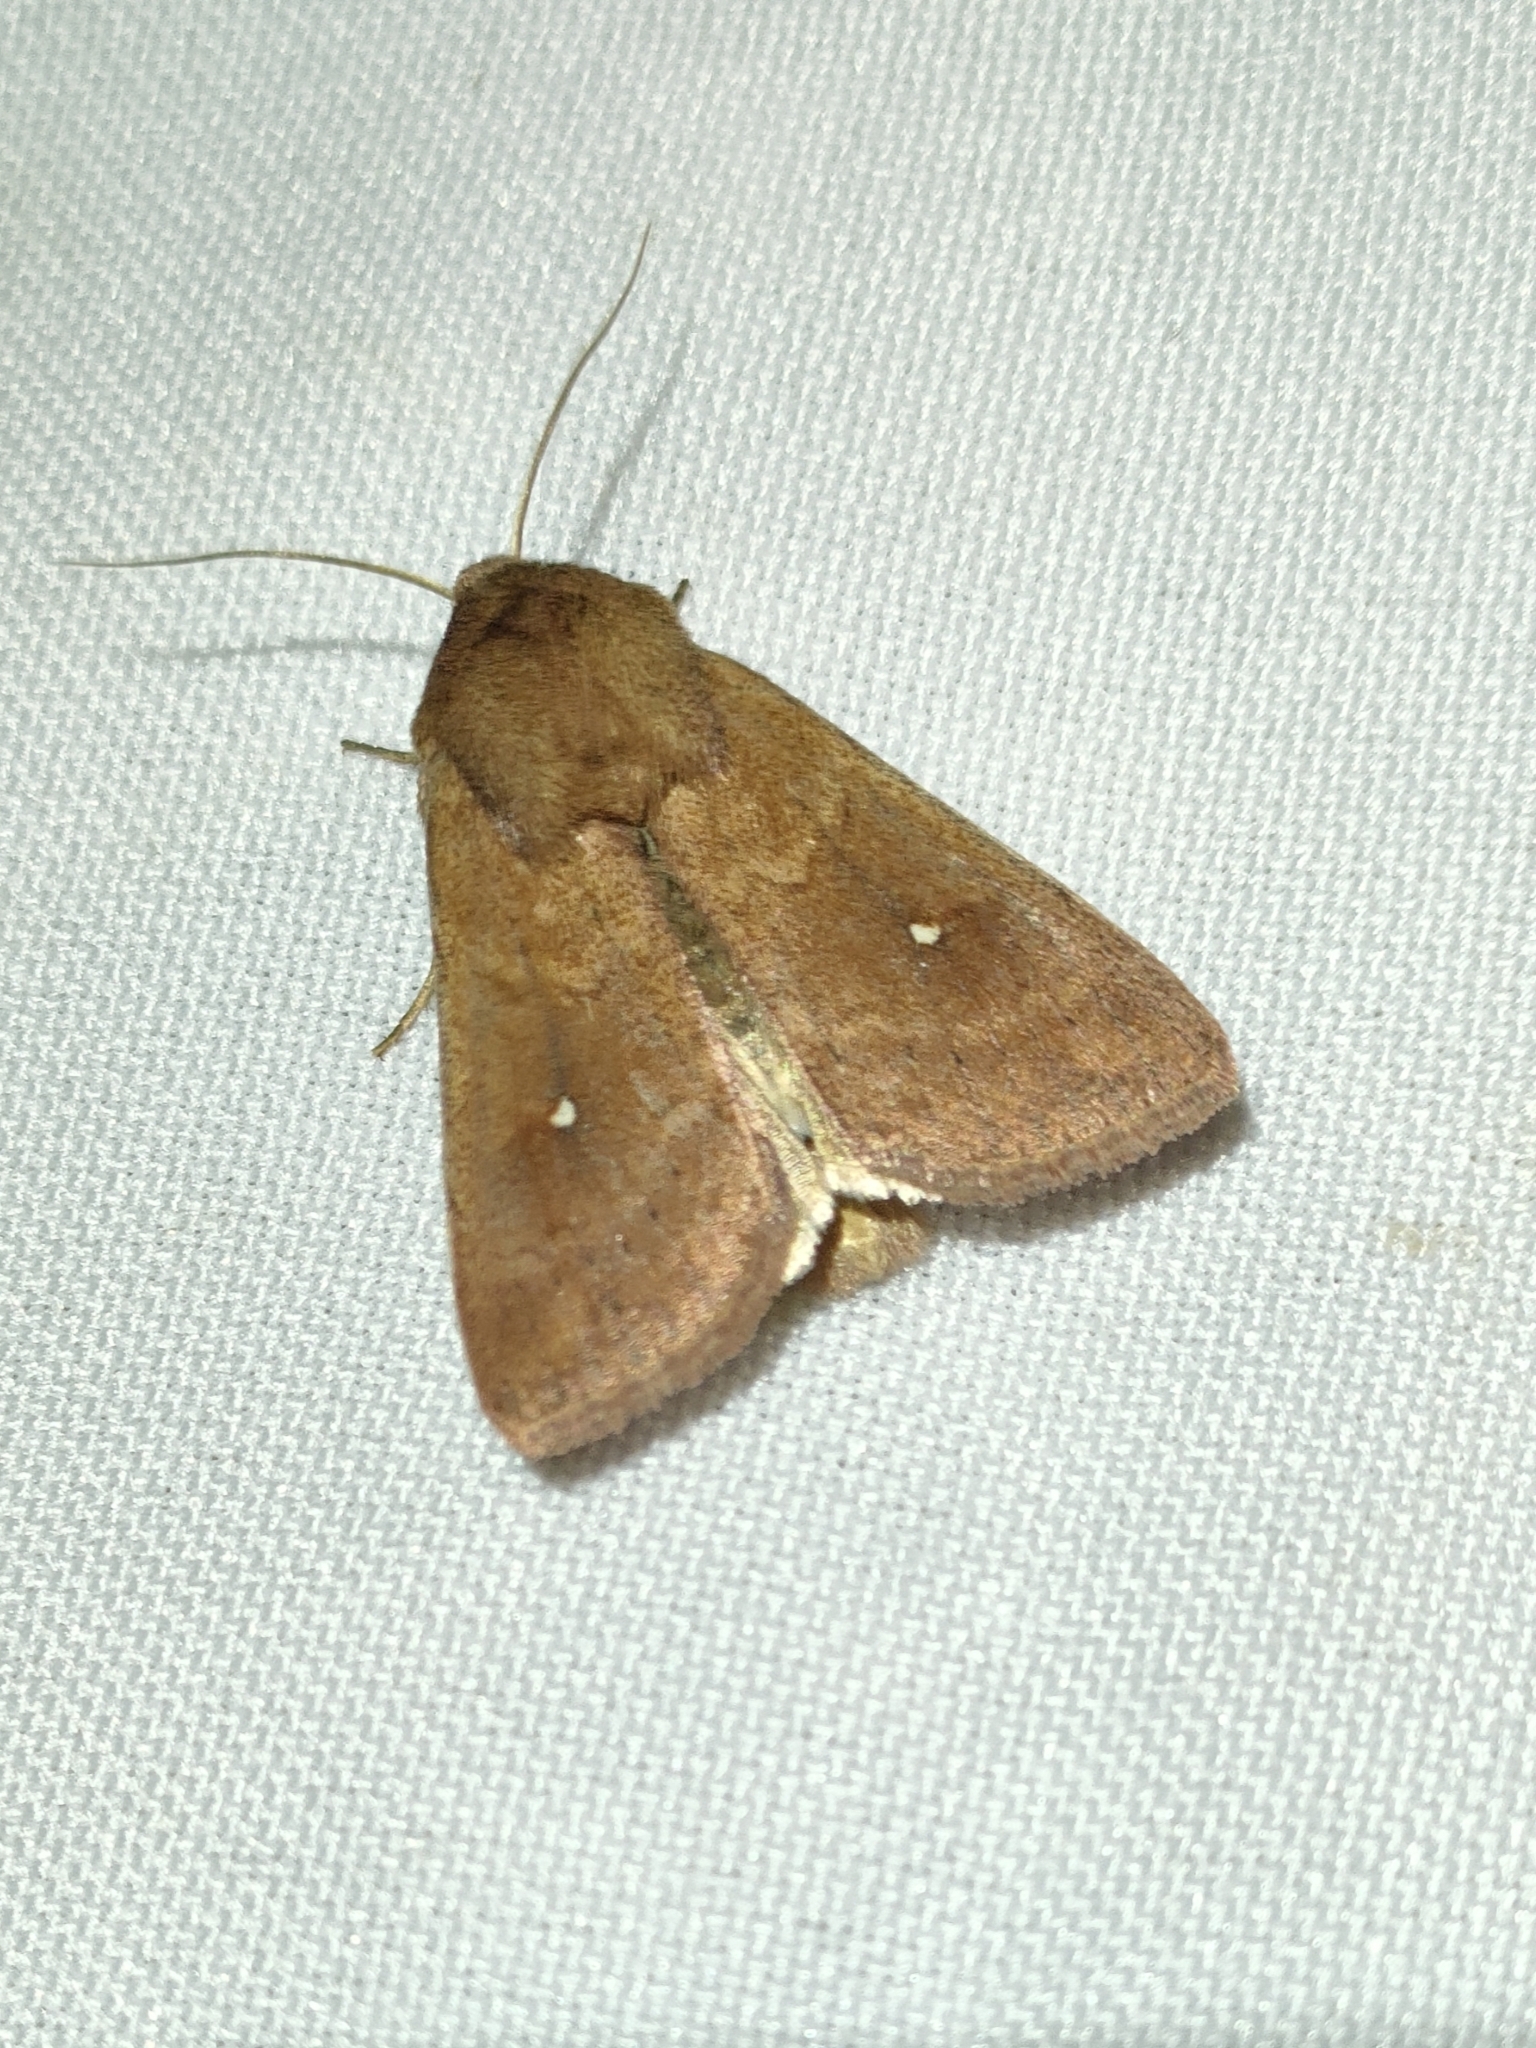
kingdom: Animalia
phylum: Arthropoda
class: Insecta
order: Lepidoptera
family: Noctuidae
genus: Mythimna
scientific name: Mythimna albipuncta
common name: White-point
